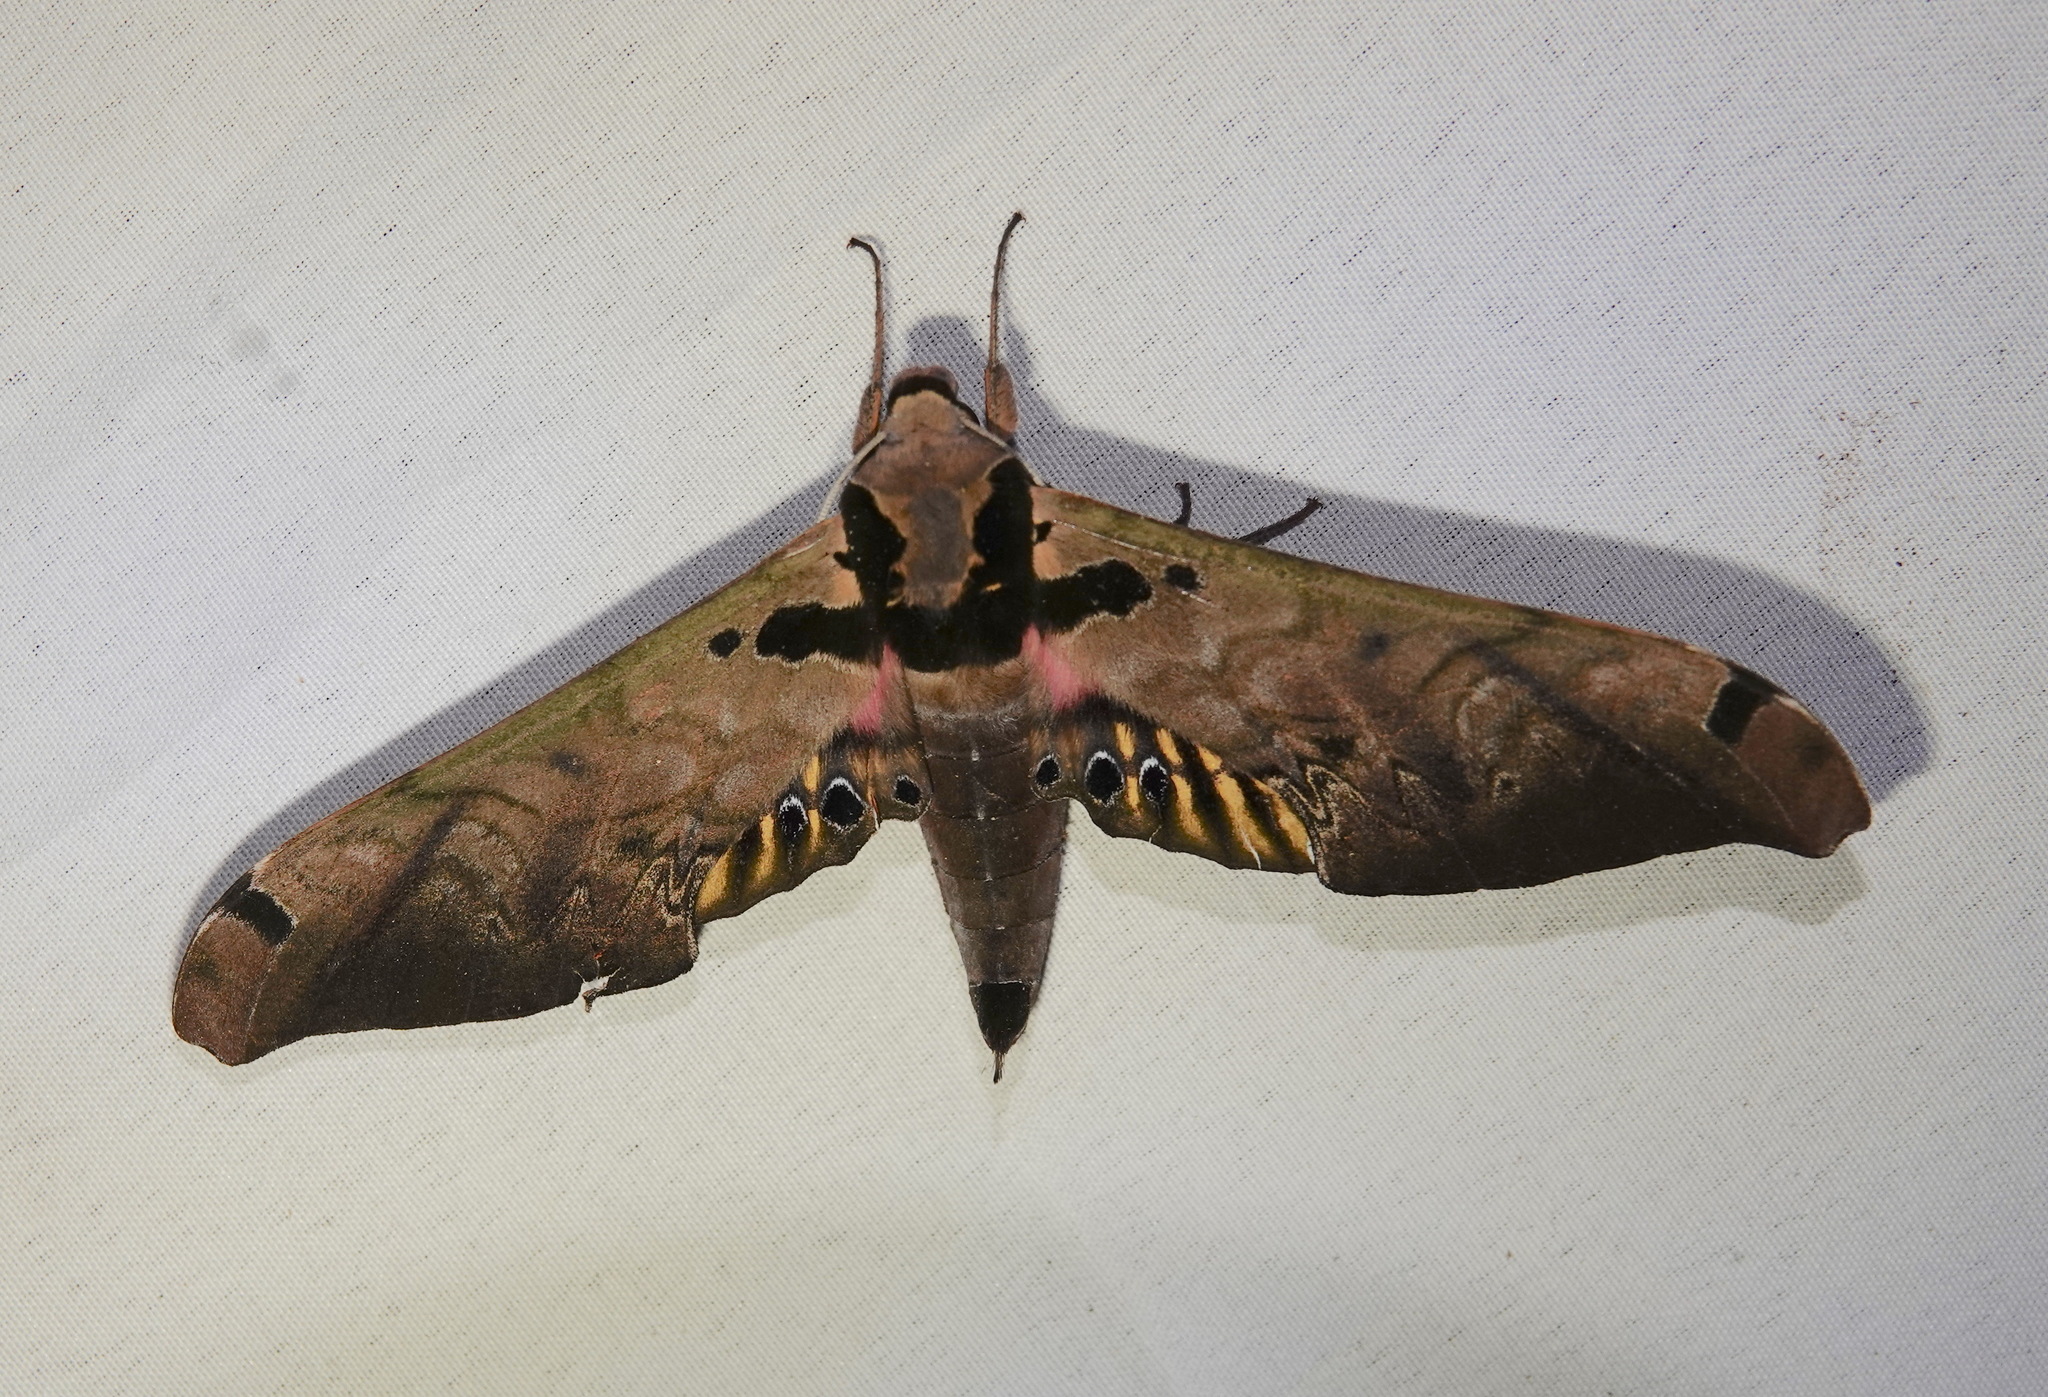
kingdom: Animalia
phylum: Arthropoda
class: Insecta
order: Lepidoptera
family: Sphingidae
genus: Adhemarius
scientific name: Adhemarius sexoculata
